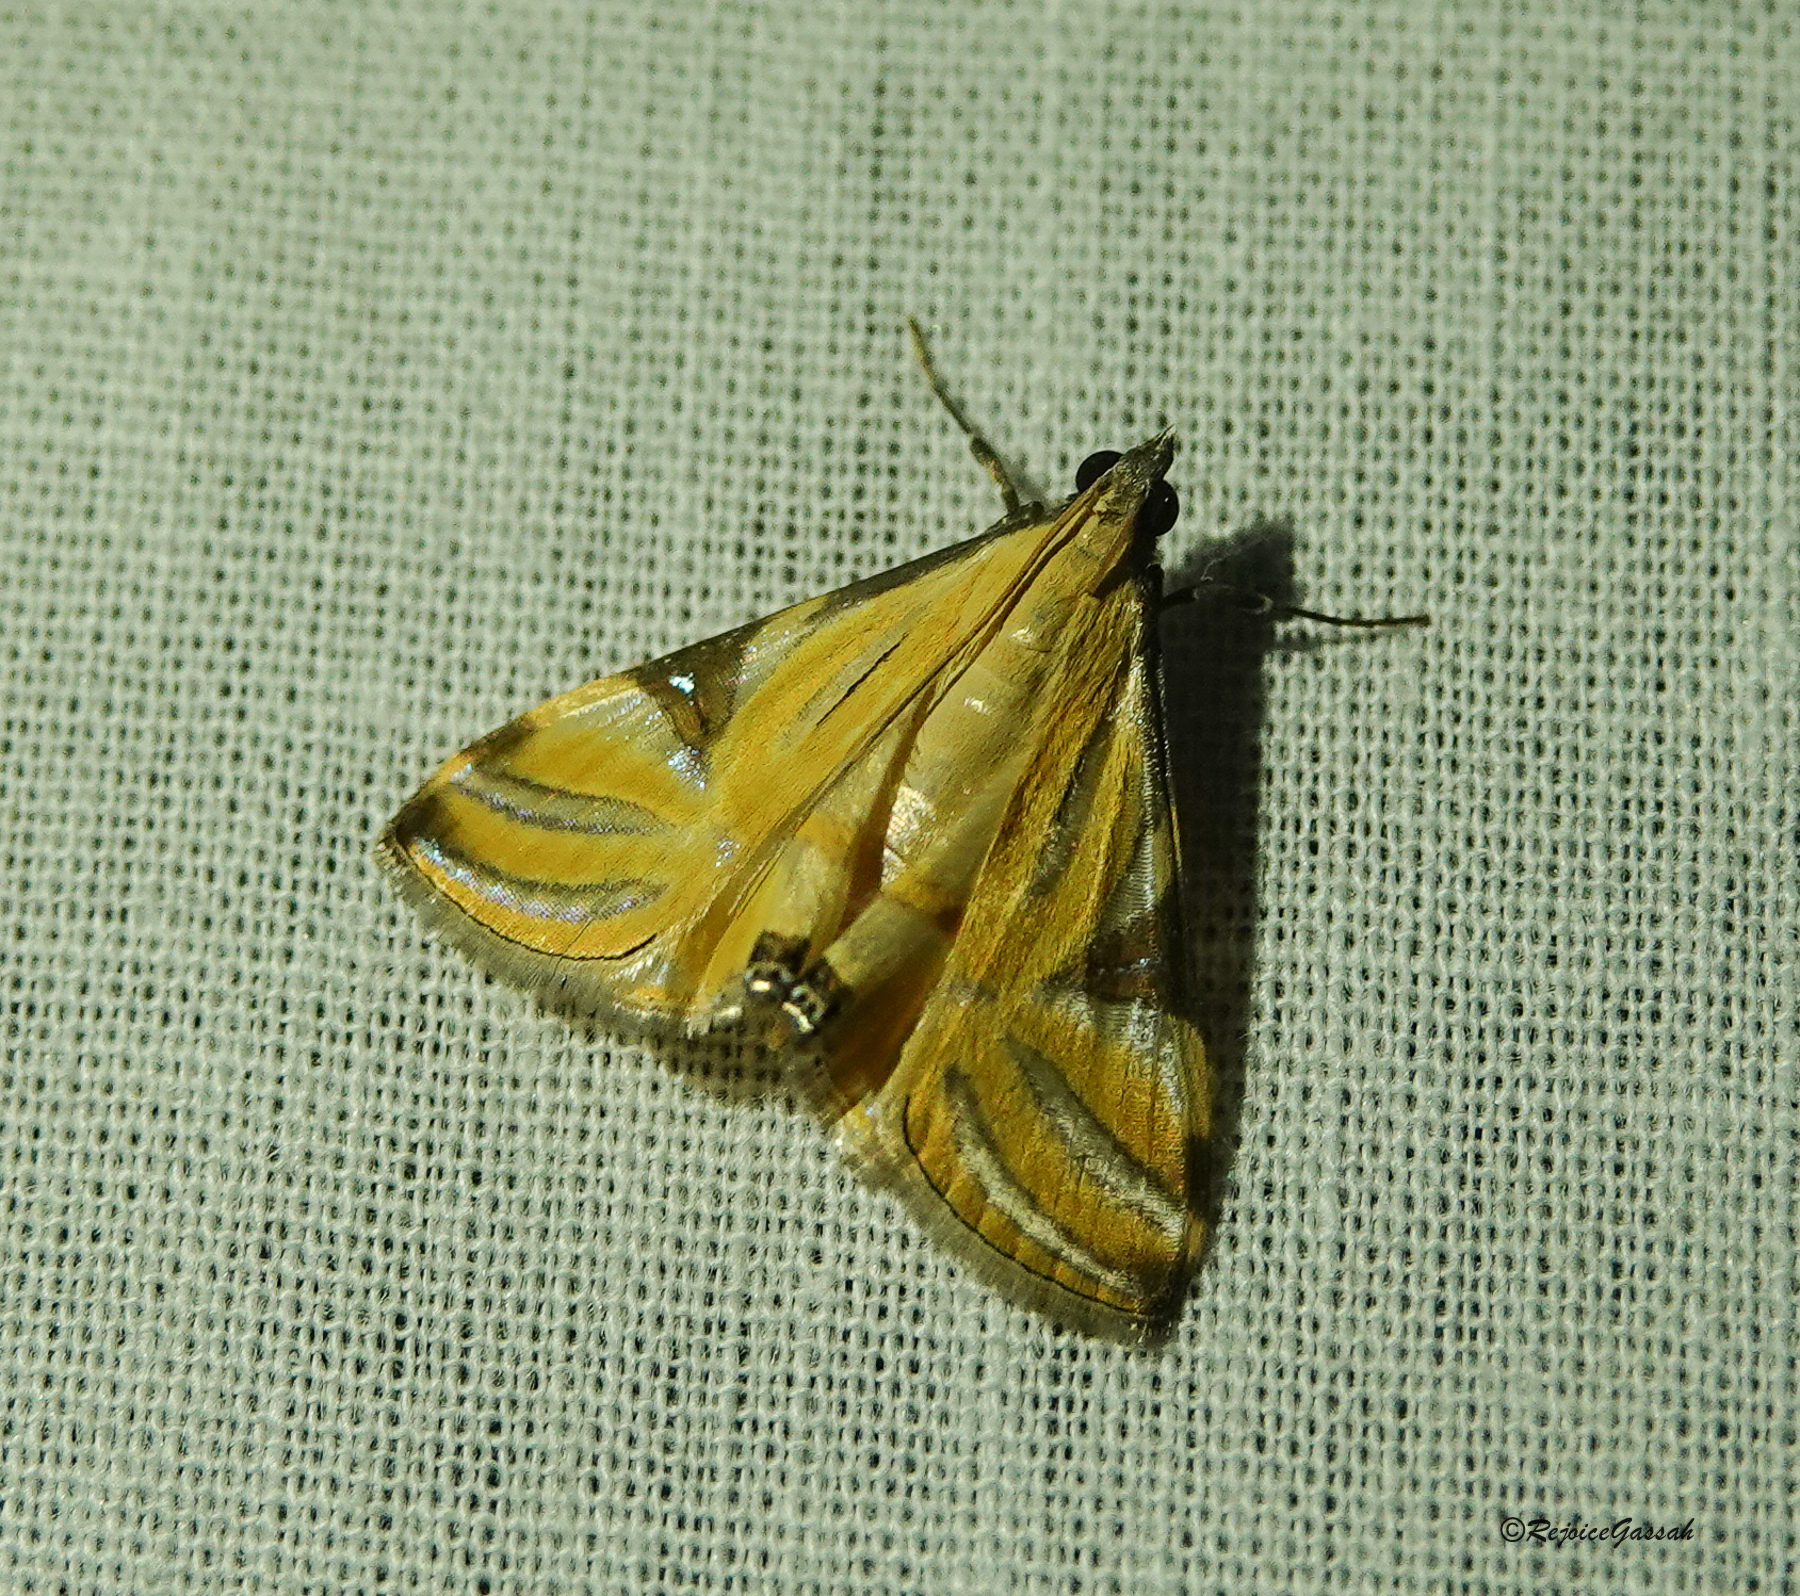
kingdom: Animalia
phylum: Arthropoda
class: Insecta
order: Lepidoptera
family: Crambidae
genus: Talanga
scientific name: Talanga sexpunctalis
